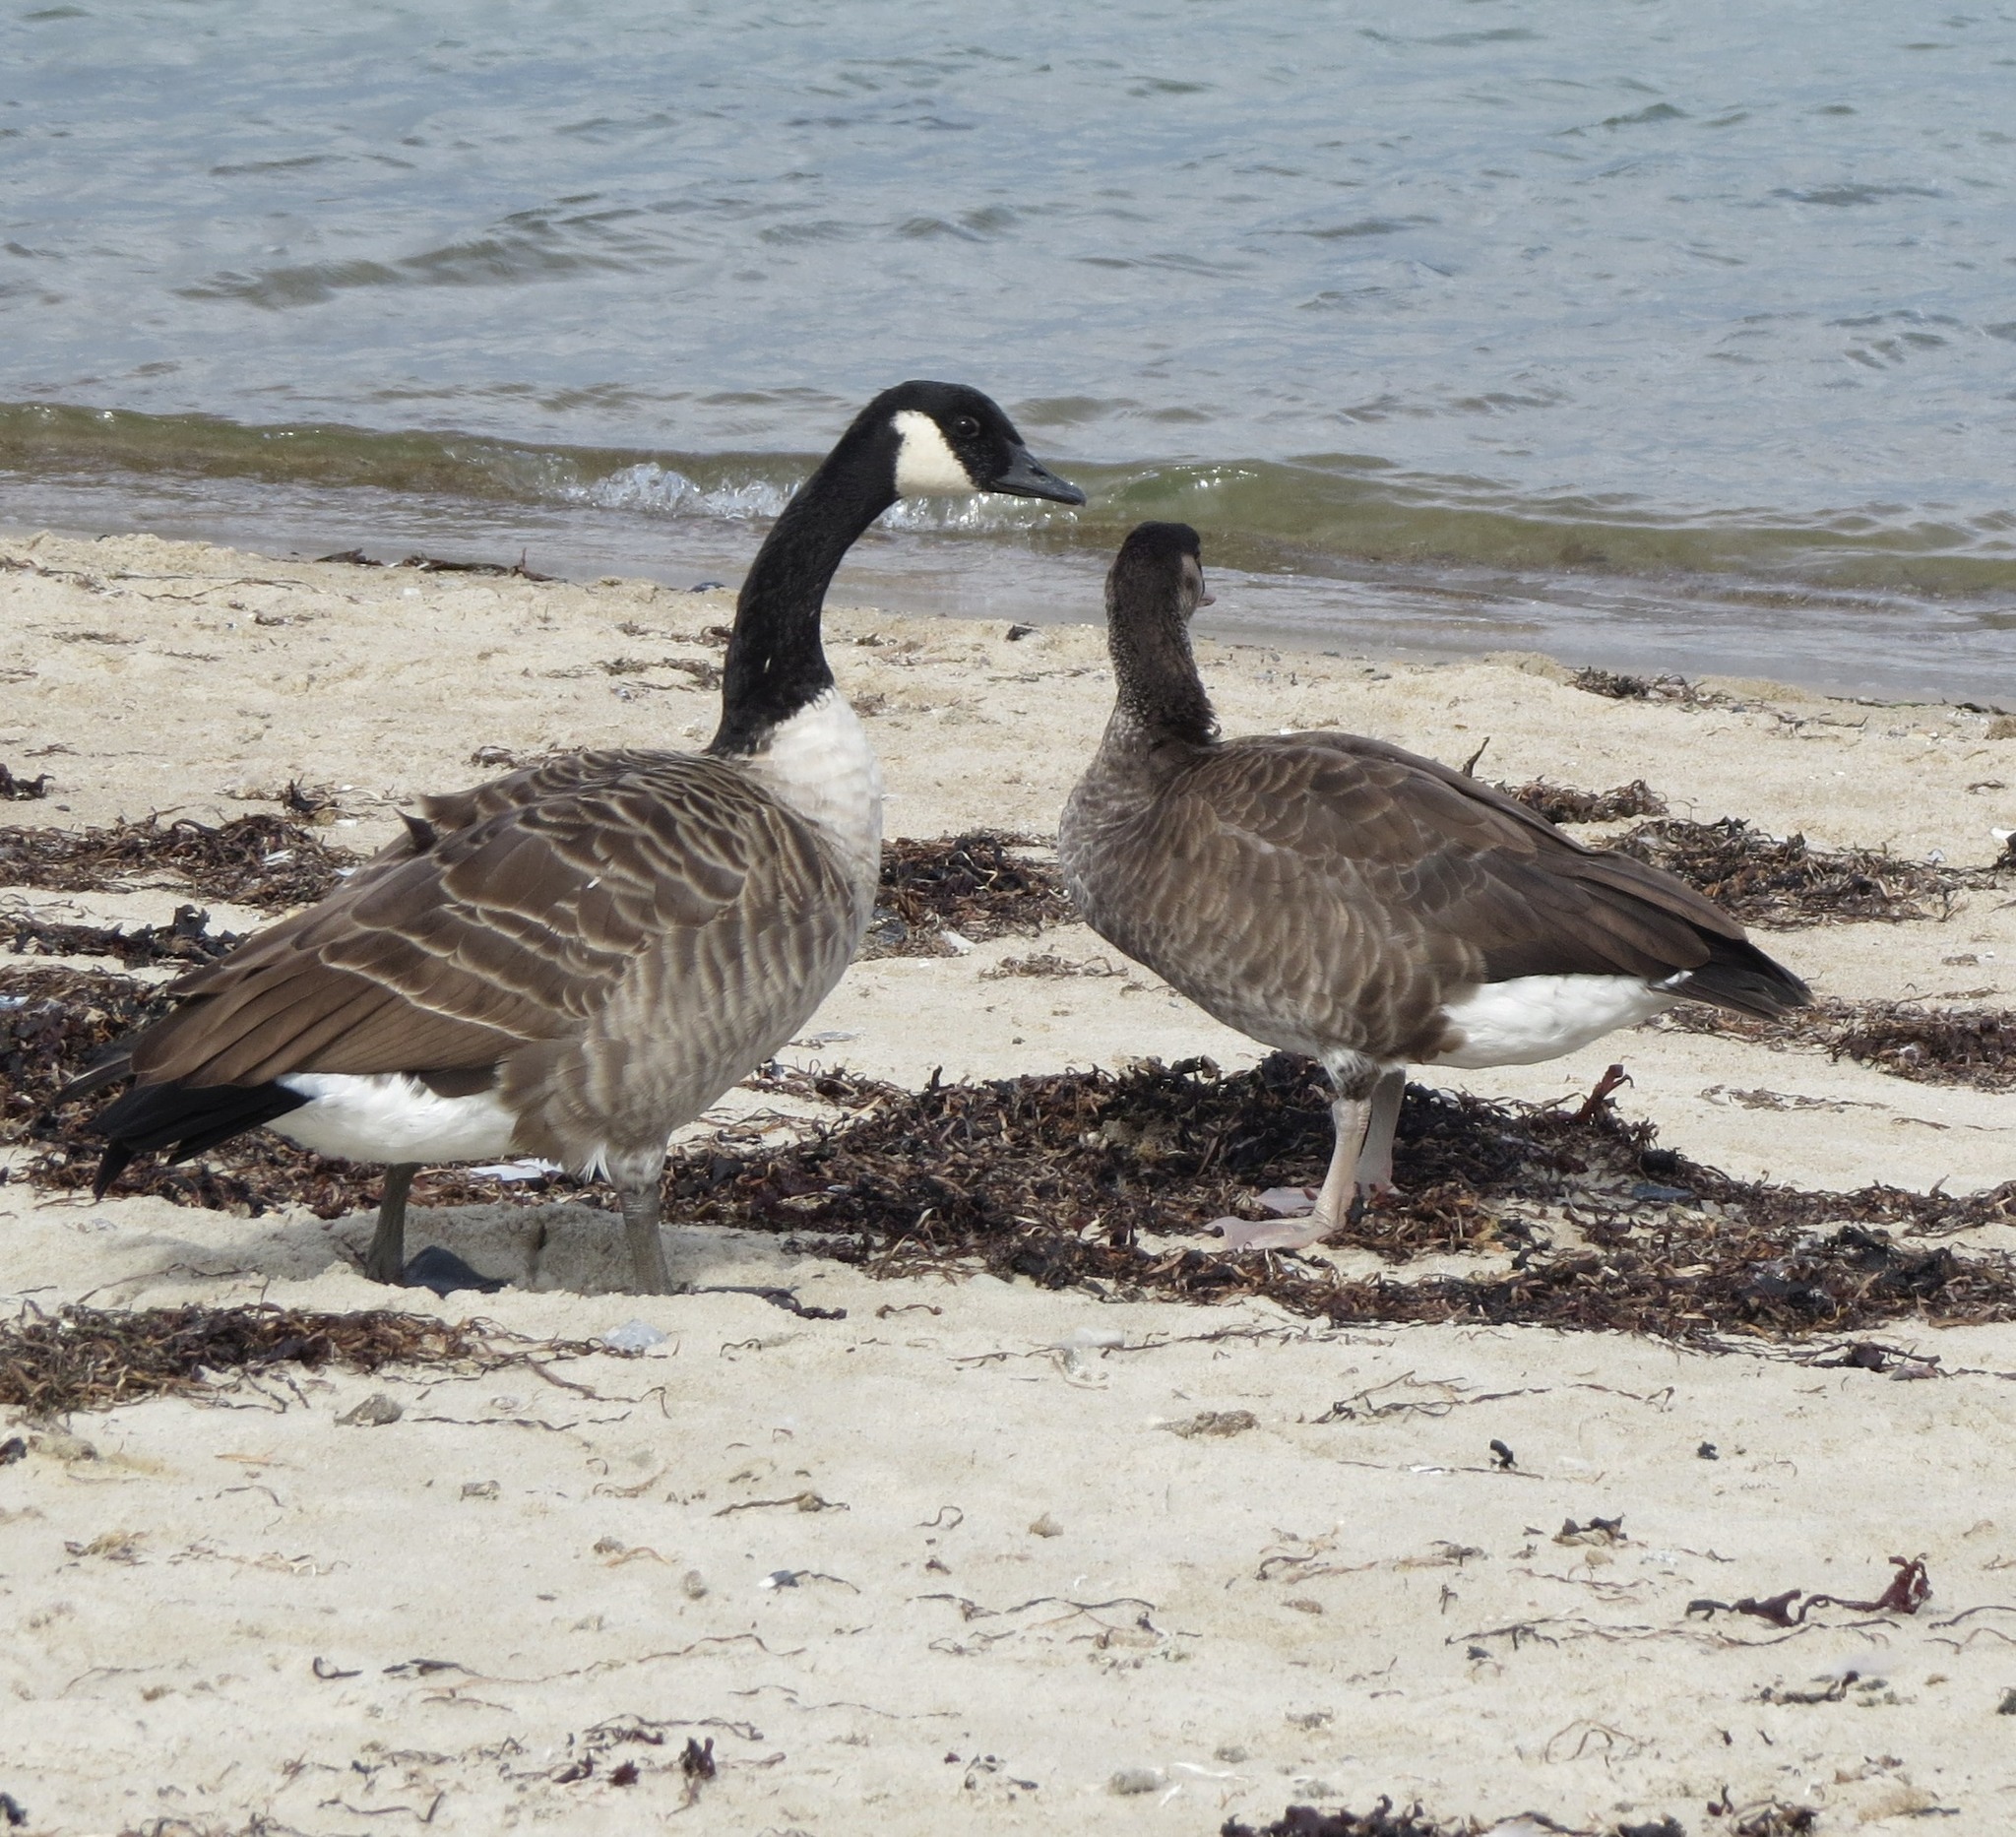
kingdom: Animalia
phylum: Chordata
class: Aves
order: Anseriformes
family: Anatidae
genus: Branta
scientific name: Branta canadensis
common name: Canada goose
